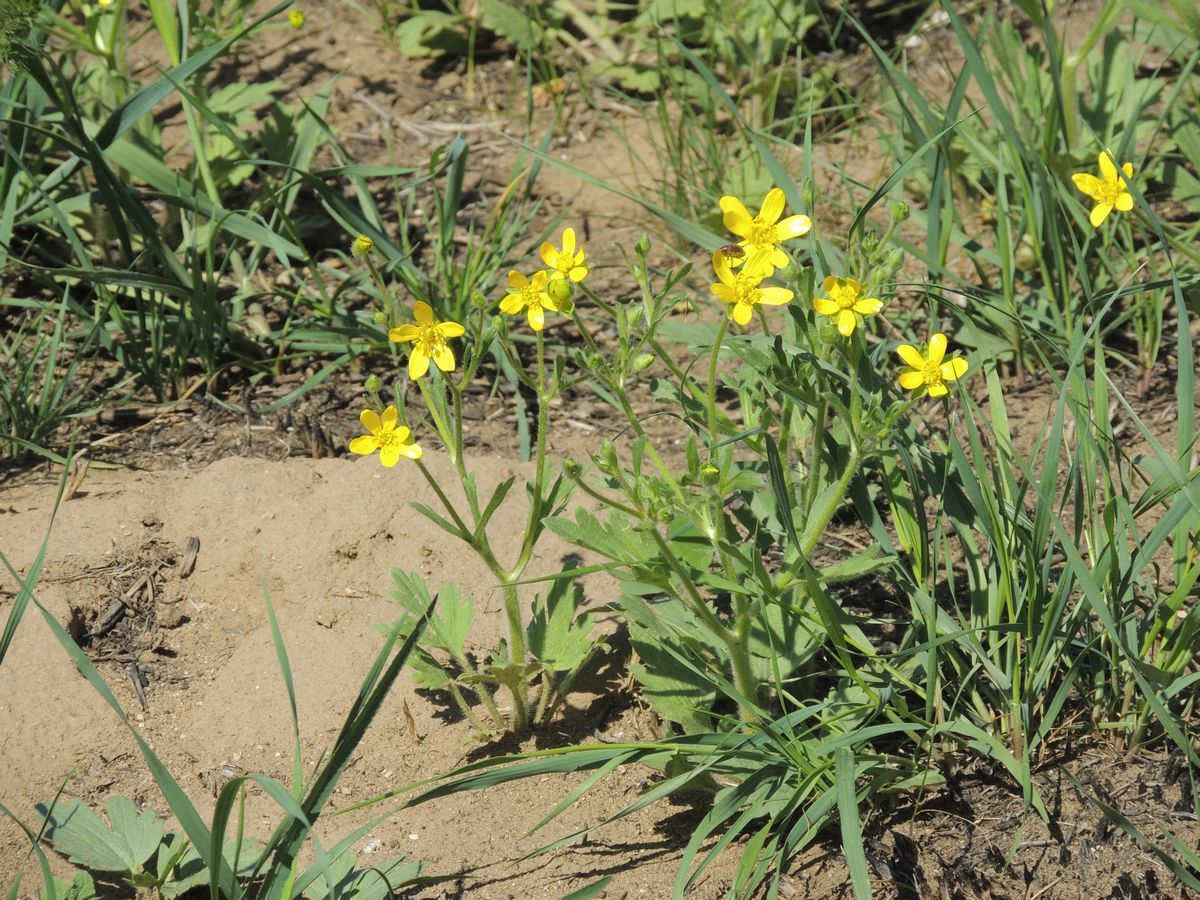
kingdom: Plantae
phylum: Tracheophyta
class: Magnoliopsida
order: Ranunculales
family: Ranunculaceae
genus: Ranunculus
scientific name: Ranunculus oxyspermus
